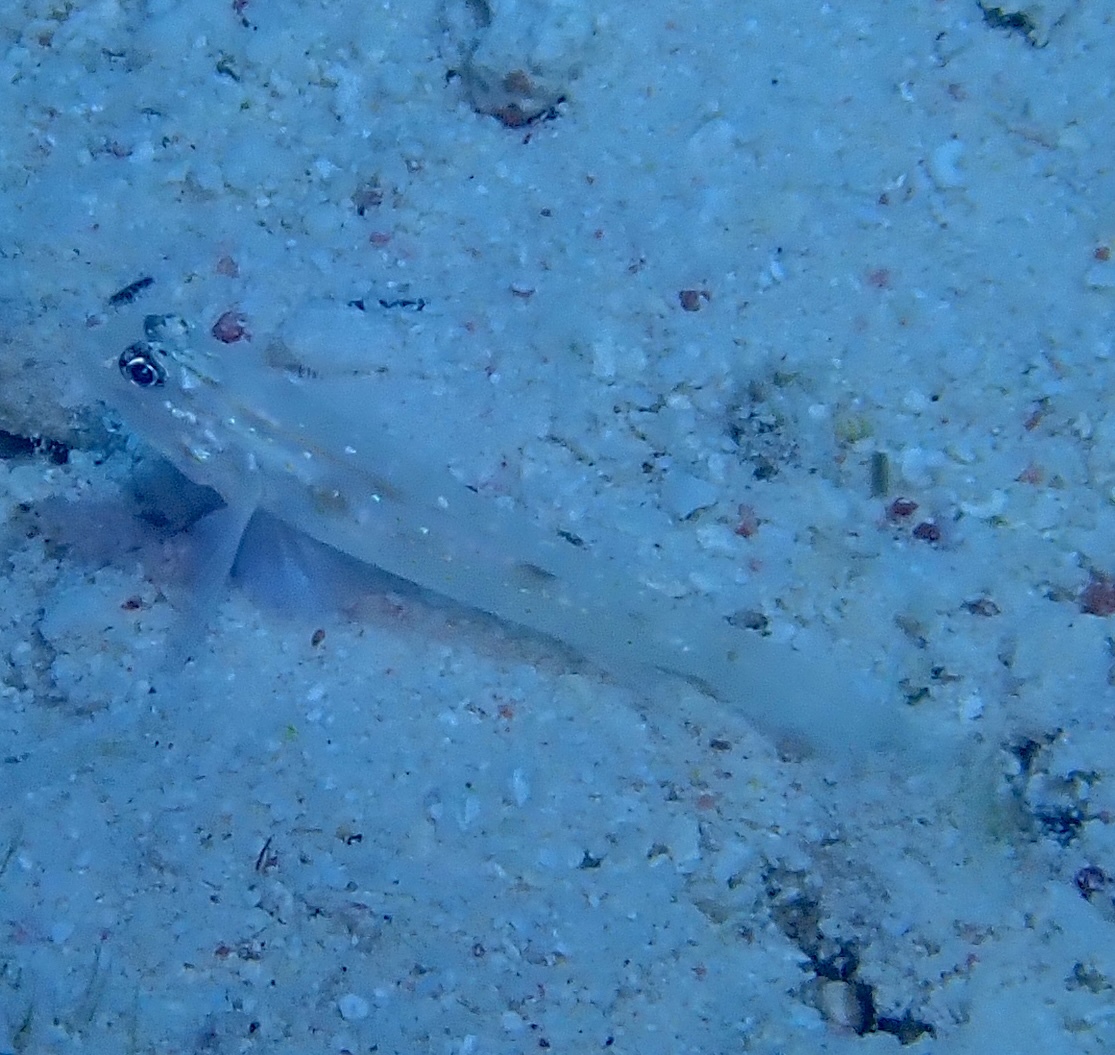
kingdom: Animalia
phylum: Chordata
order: Perciformes
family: Gobiidae
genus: Coryphopterus
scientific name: Coryphopterus venezuelae
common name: Sand-canyon goby
